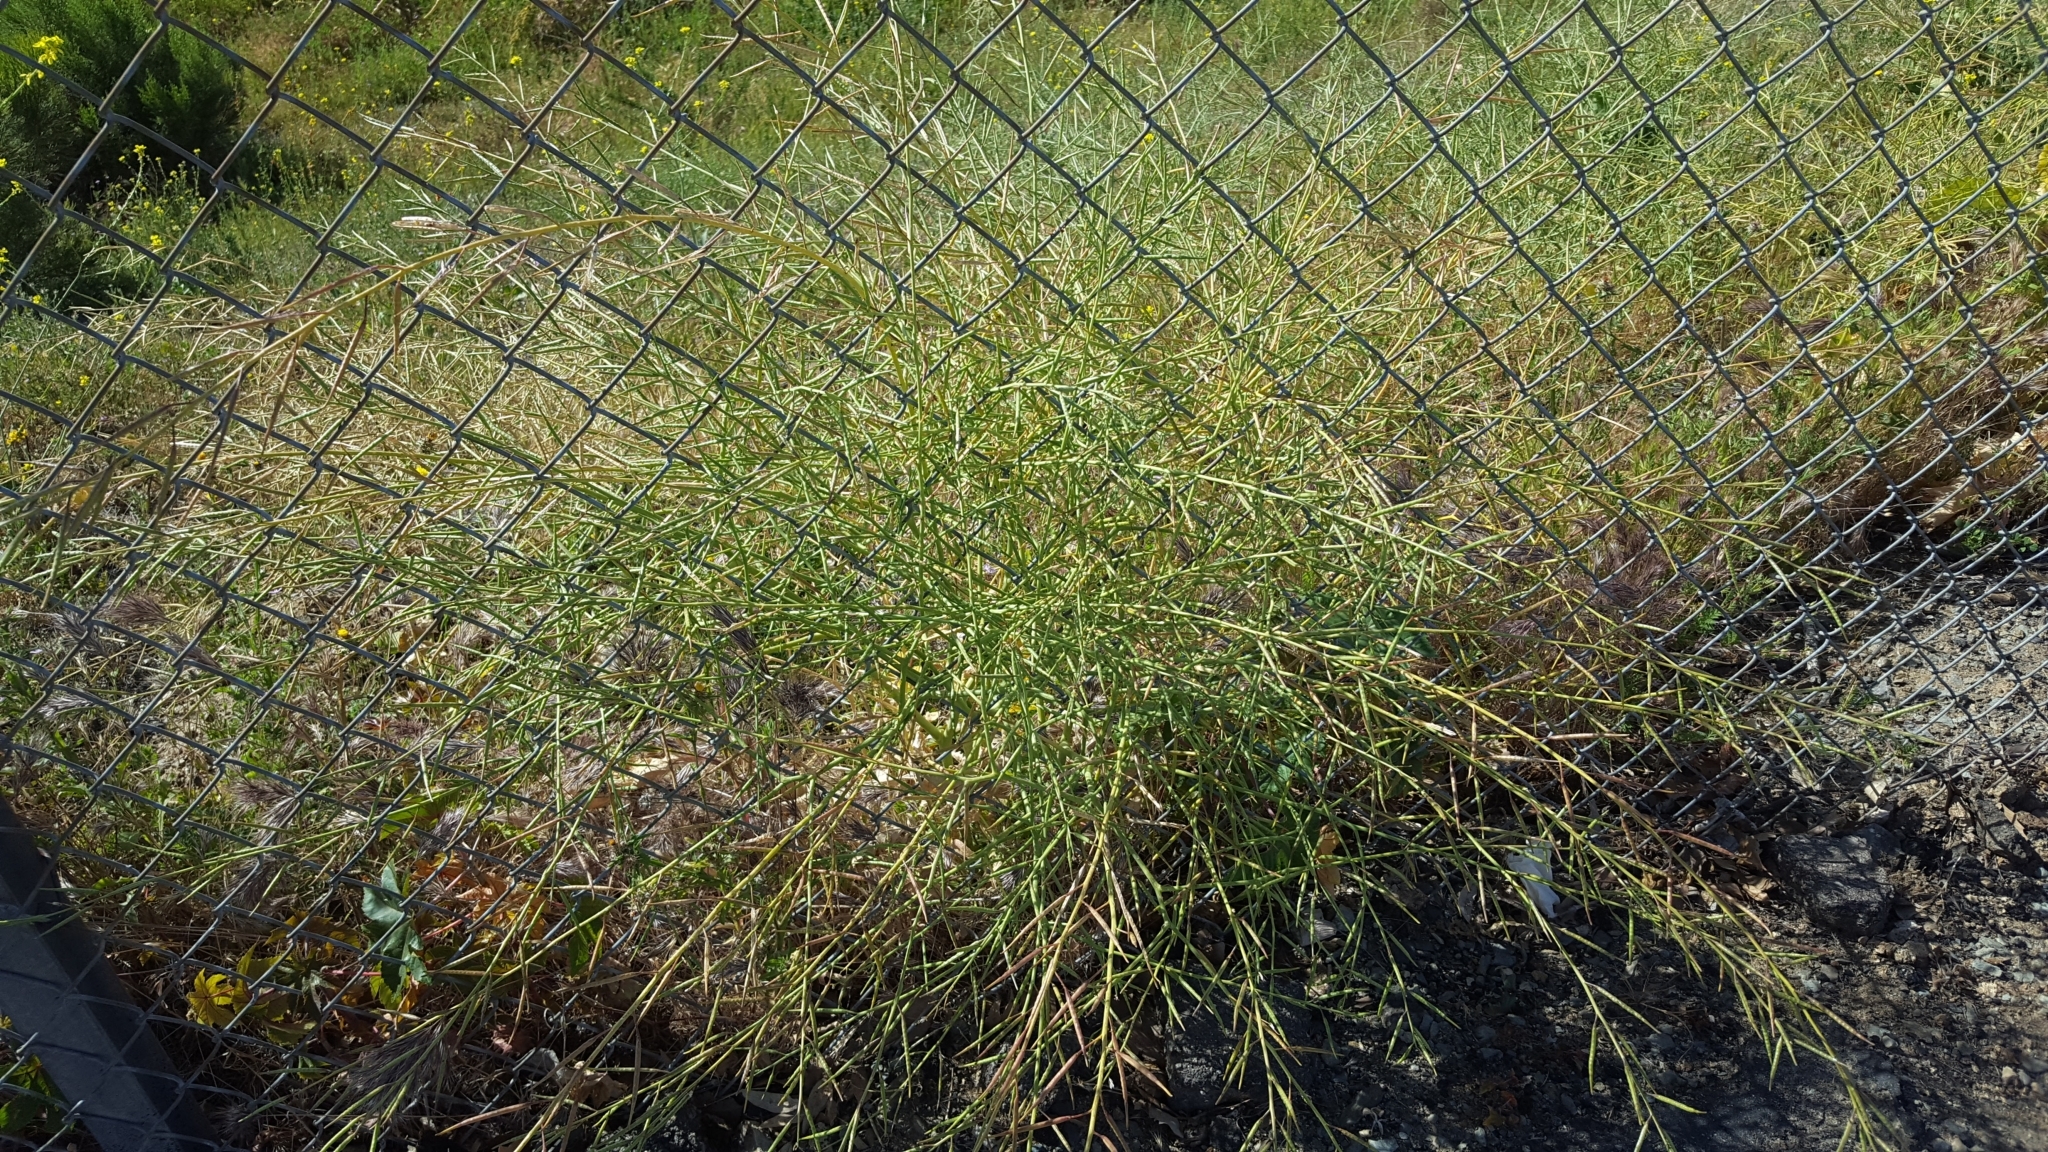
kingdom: Plantae
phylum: Tracheophyta
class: Magnoliopsida
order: Brassicales
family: Brassicaceae
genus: Brassica
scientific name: Brassica tournefortii
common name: Pale cabbage
